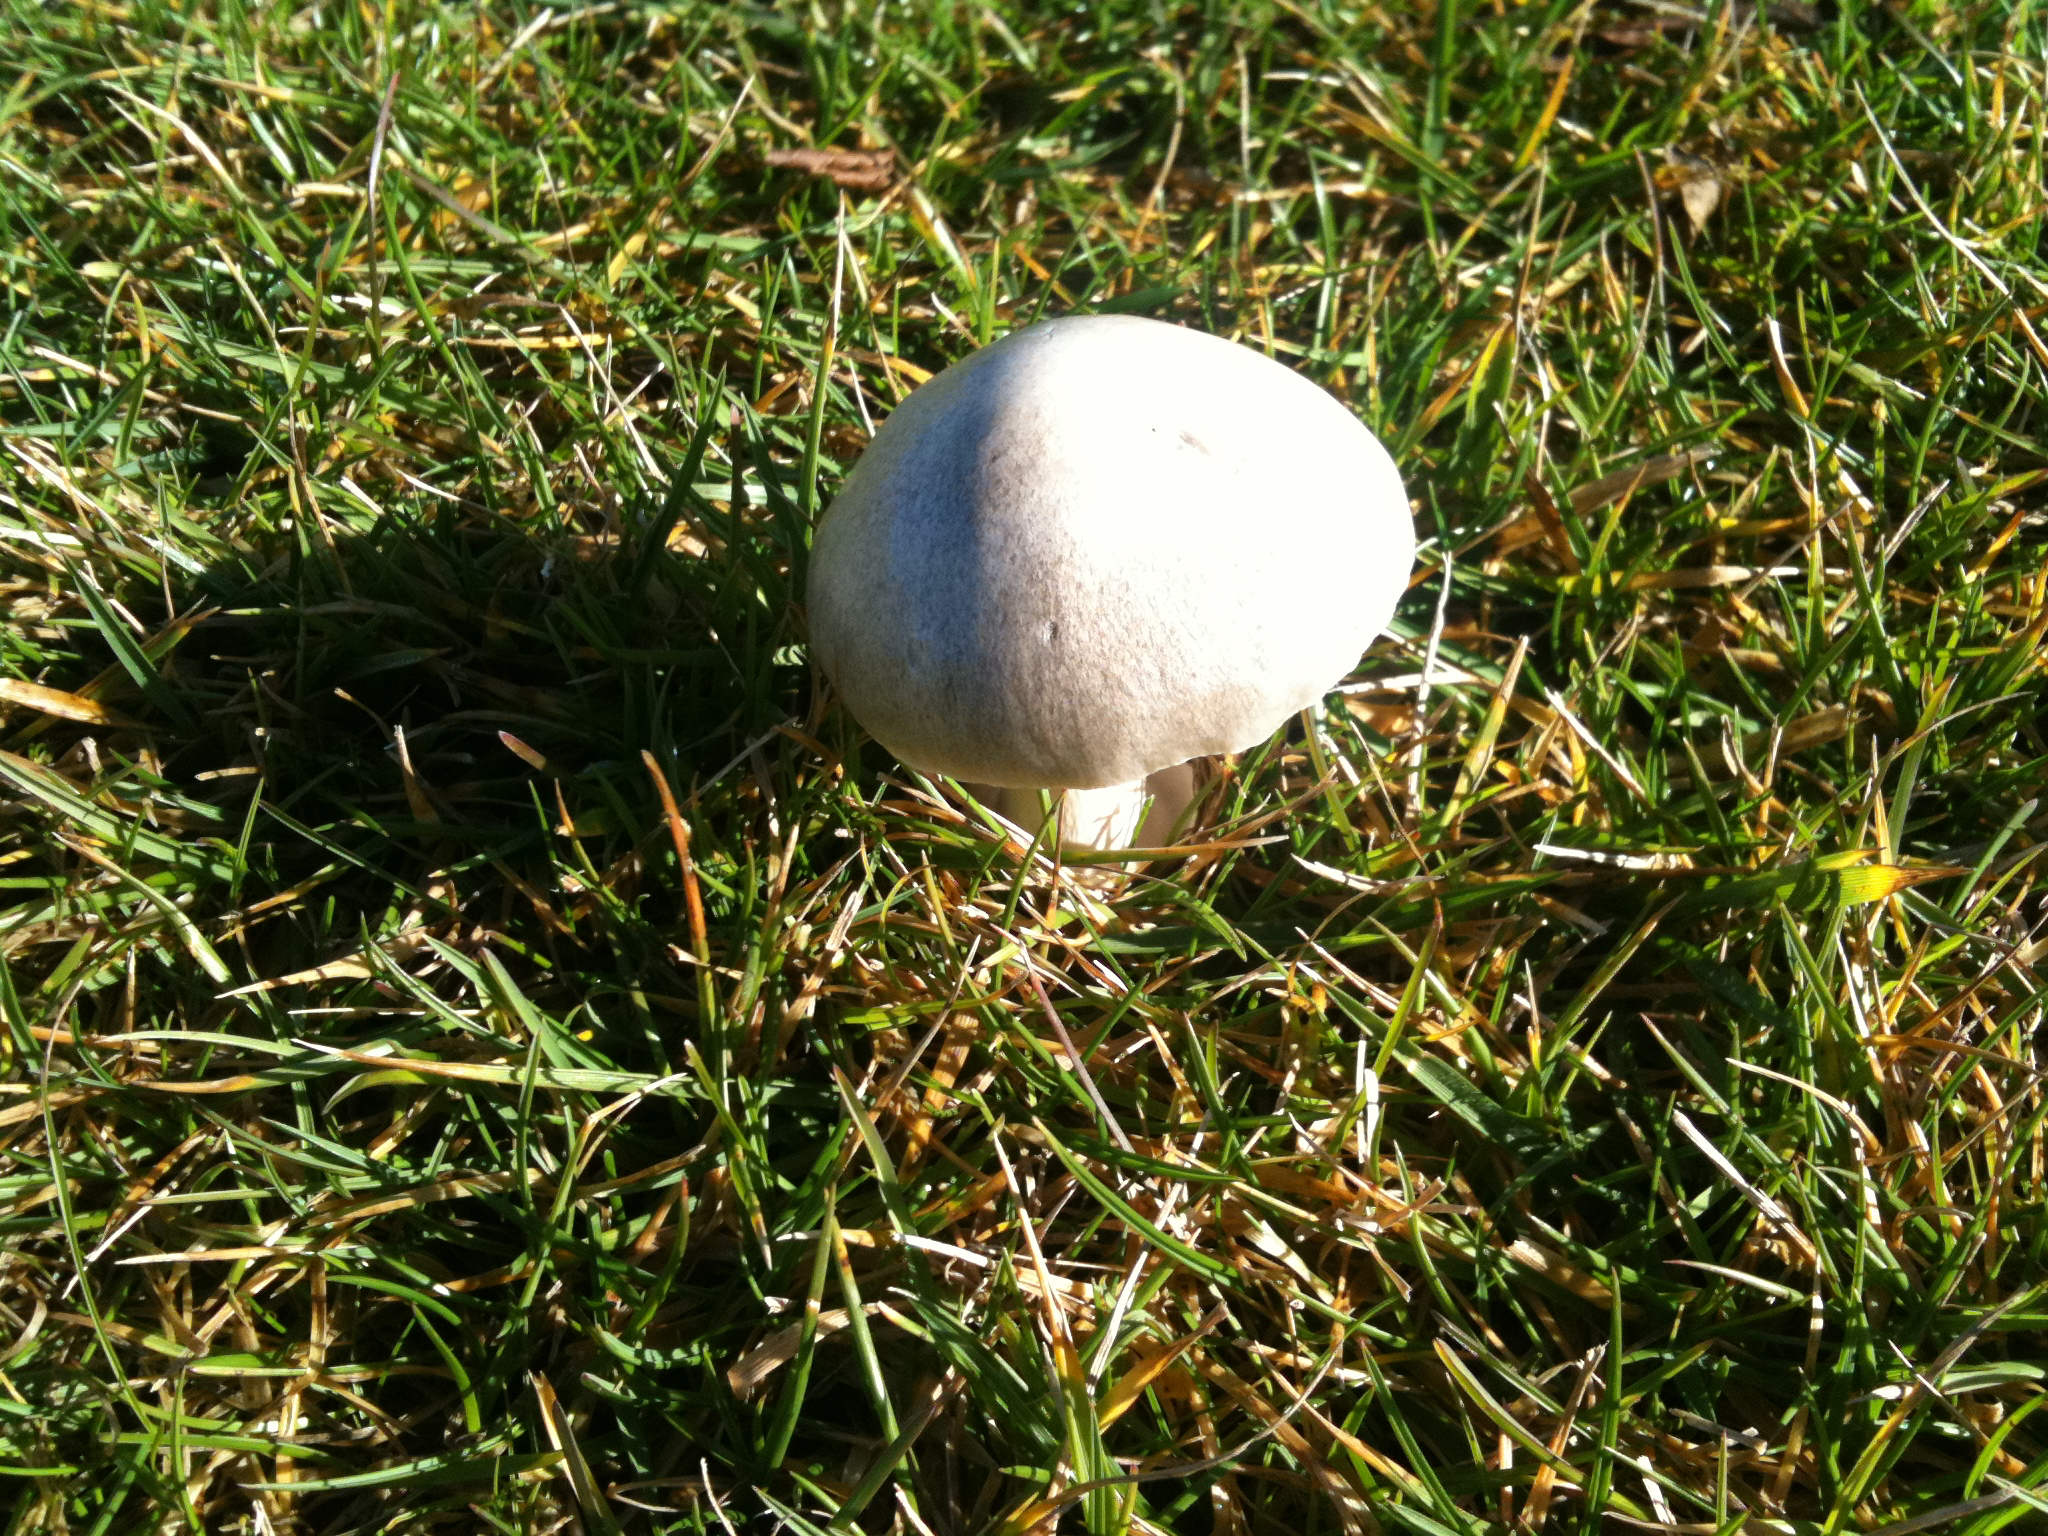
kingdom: Fungi
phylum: Basidiomycota
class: Agaricomycetes
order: Agaricales
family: Pluteaceae
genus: Volvopluteus
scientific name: Volvopluteus gloiocephalus
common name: Stubble rosegill
